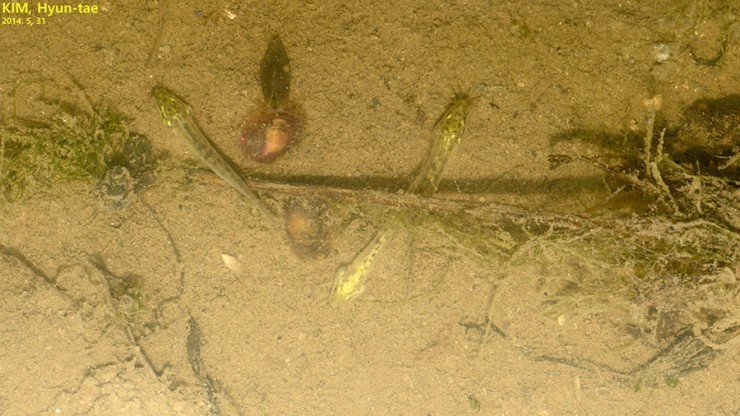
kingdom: Animalia
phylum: Chordata
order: Cypriniformes
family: Cobitidae
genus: Misgurnus
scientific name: Misgurnus anguillicaudatus
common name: Oriental weatherfish
